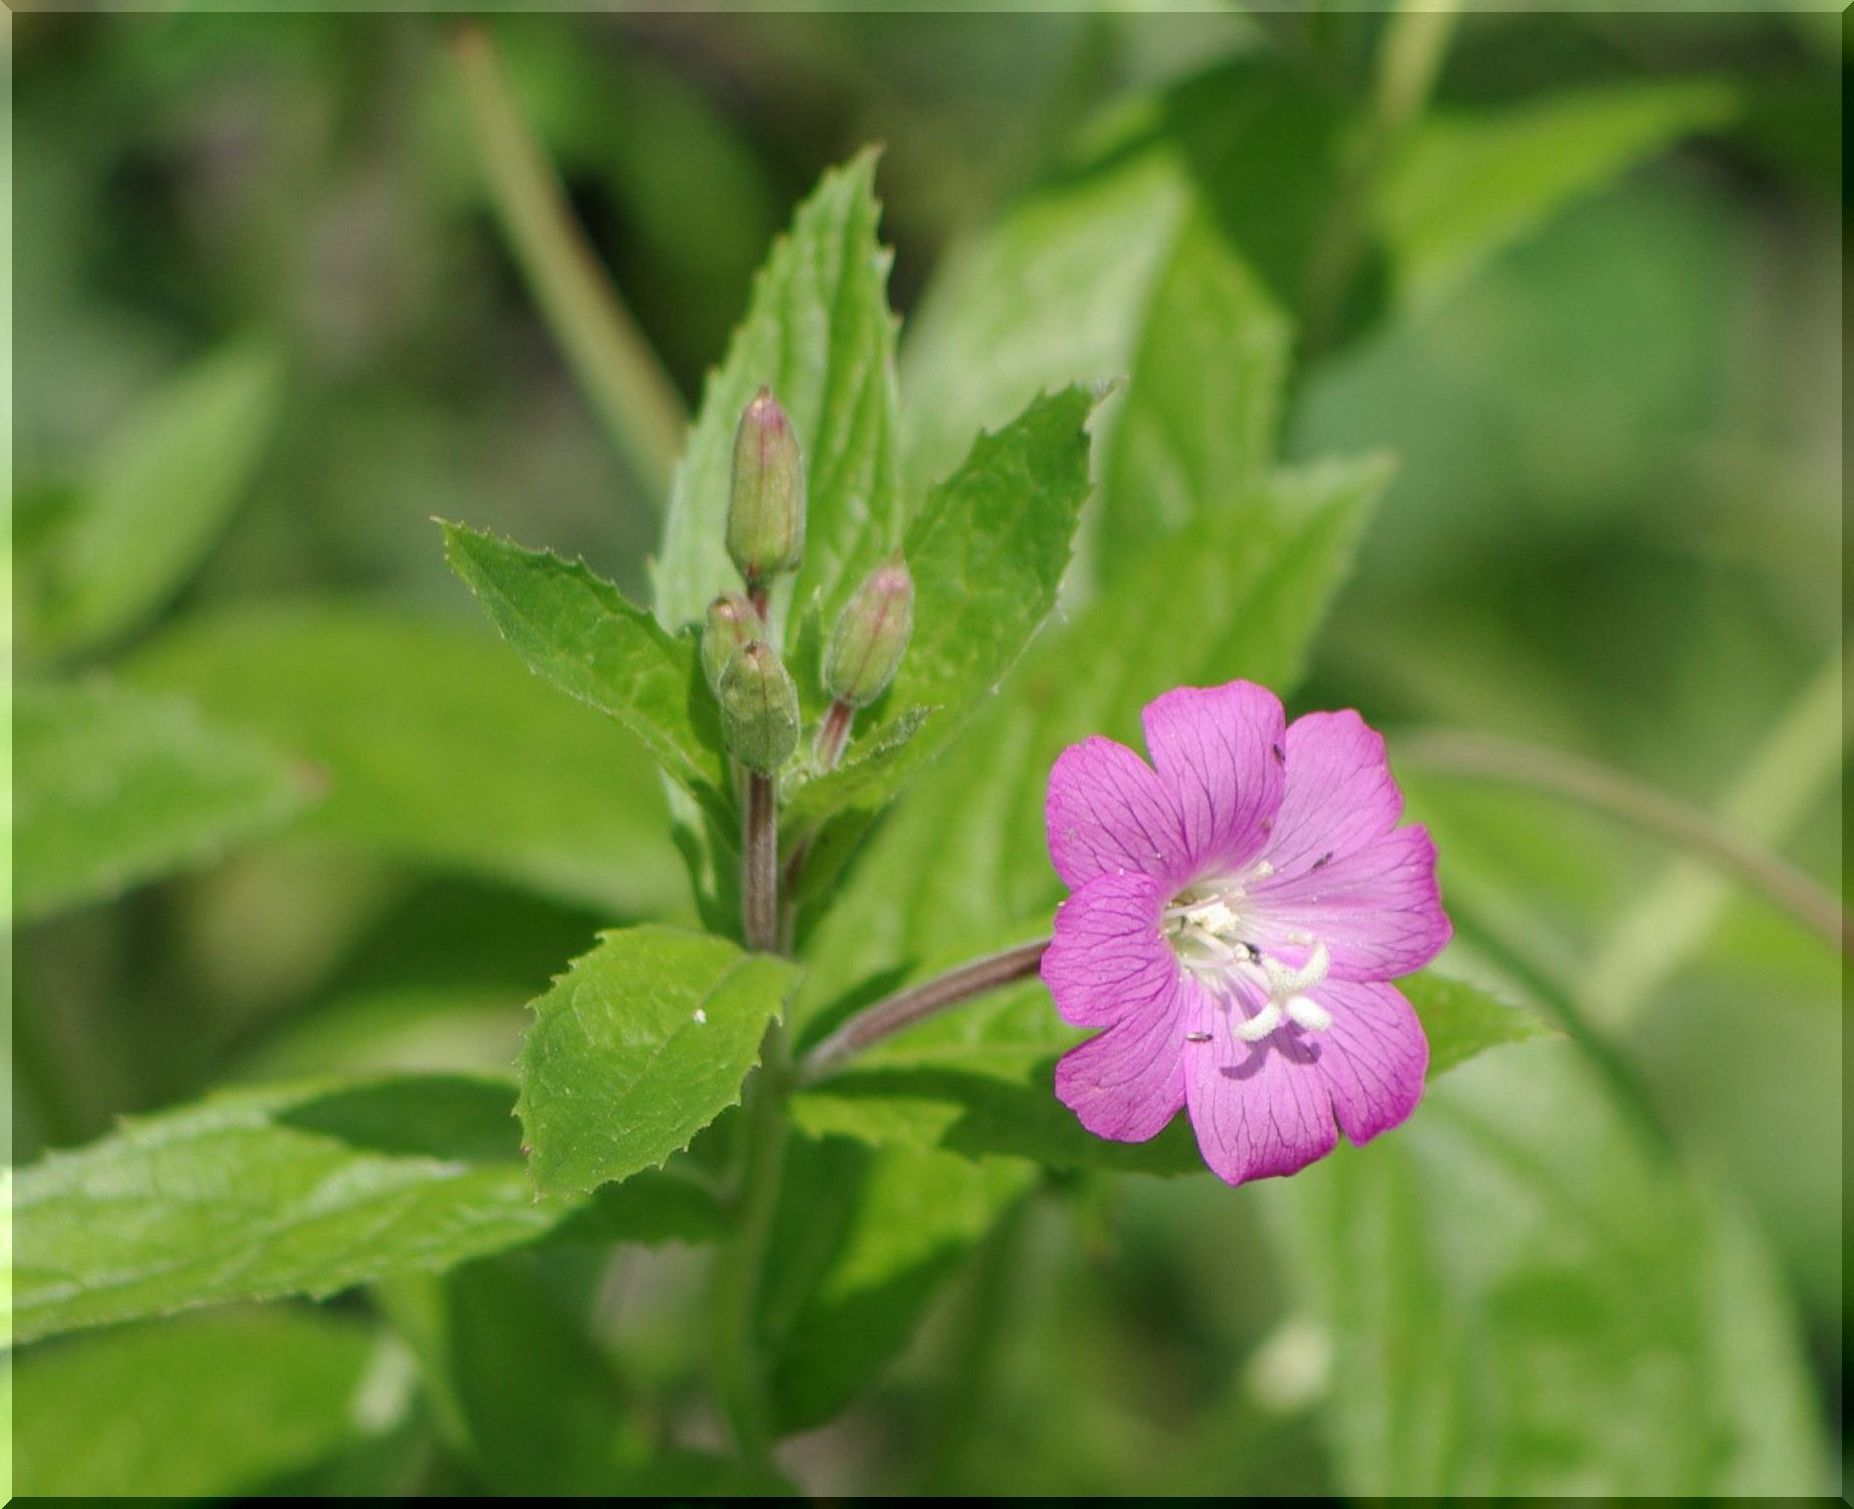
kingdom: Plantae
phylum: Tracheophyta
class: Magnoliopsida
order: Myrtales
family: Onagraceae
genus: Epilobium
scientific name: Epilobium hirsutum
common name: Great willowherb
